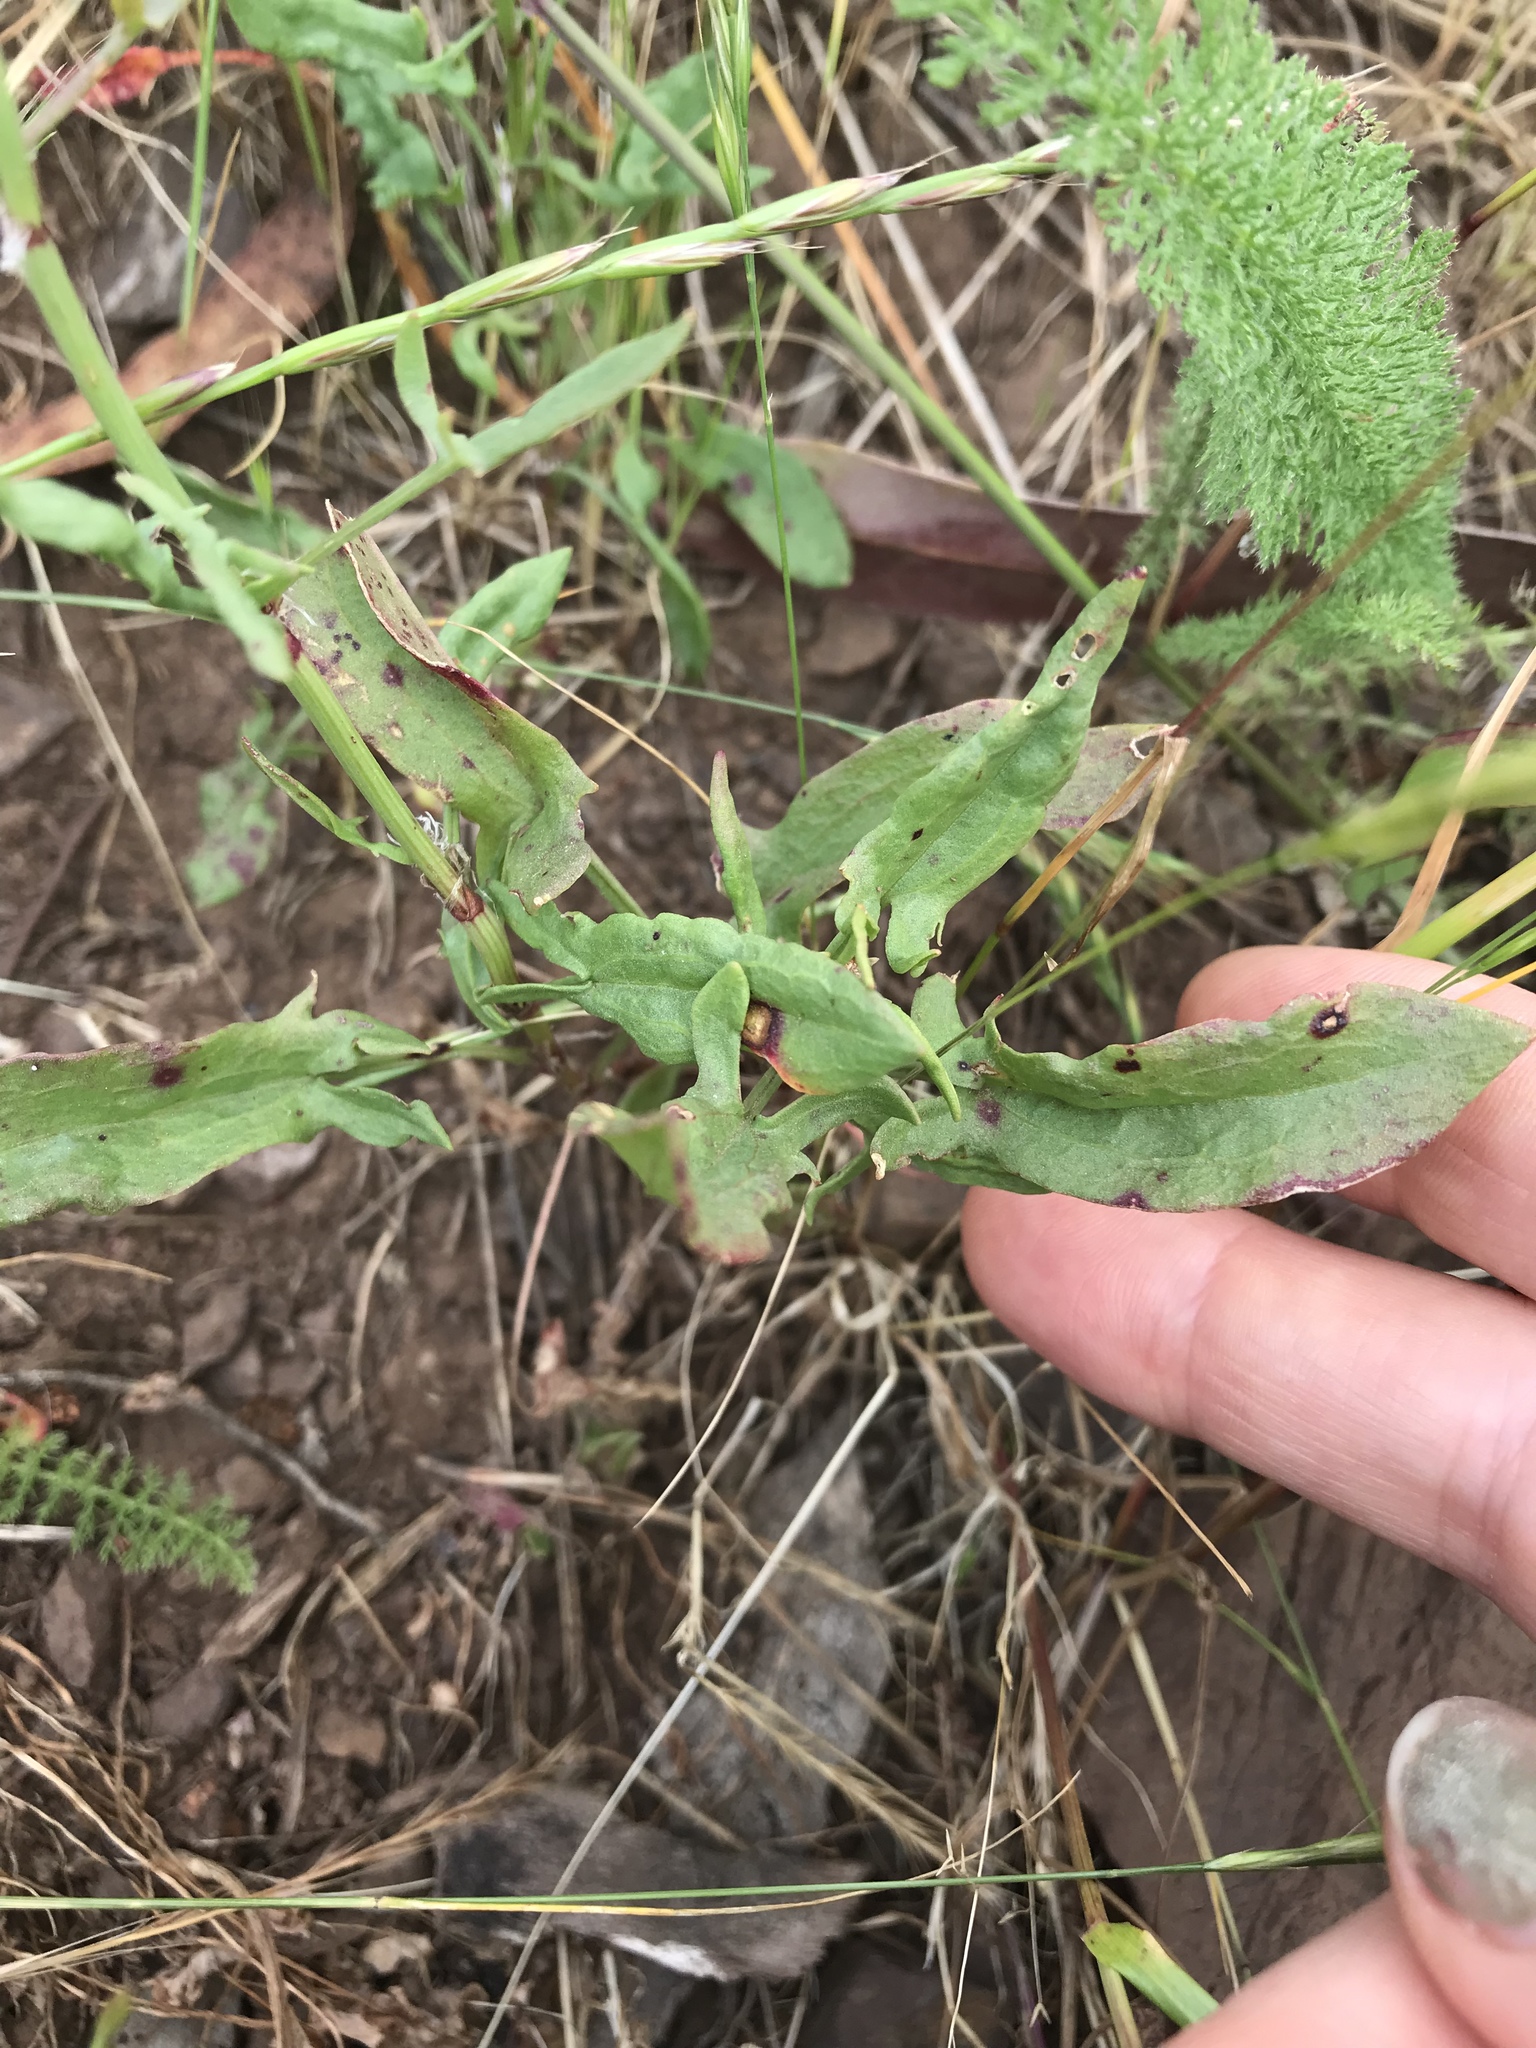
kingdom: Plantae
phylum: Tracheophyta
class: Magnoliopsida
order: Caryophyllales
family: Polygonaceae
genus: Rumex
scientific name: Rumex acetosella
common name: Common sheep sorrel
